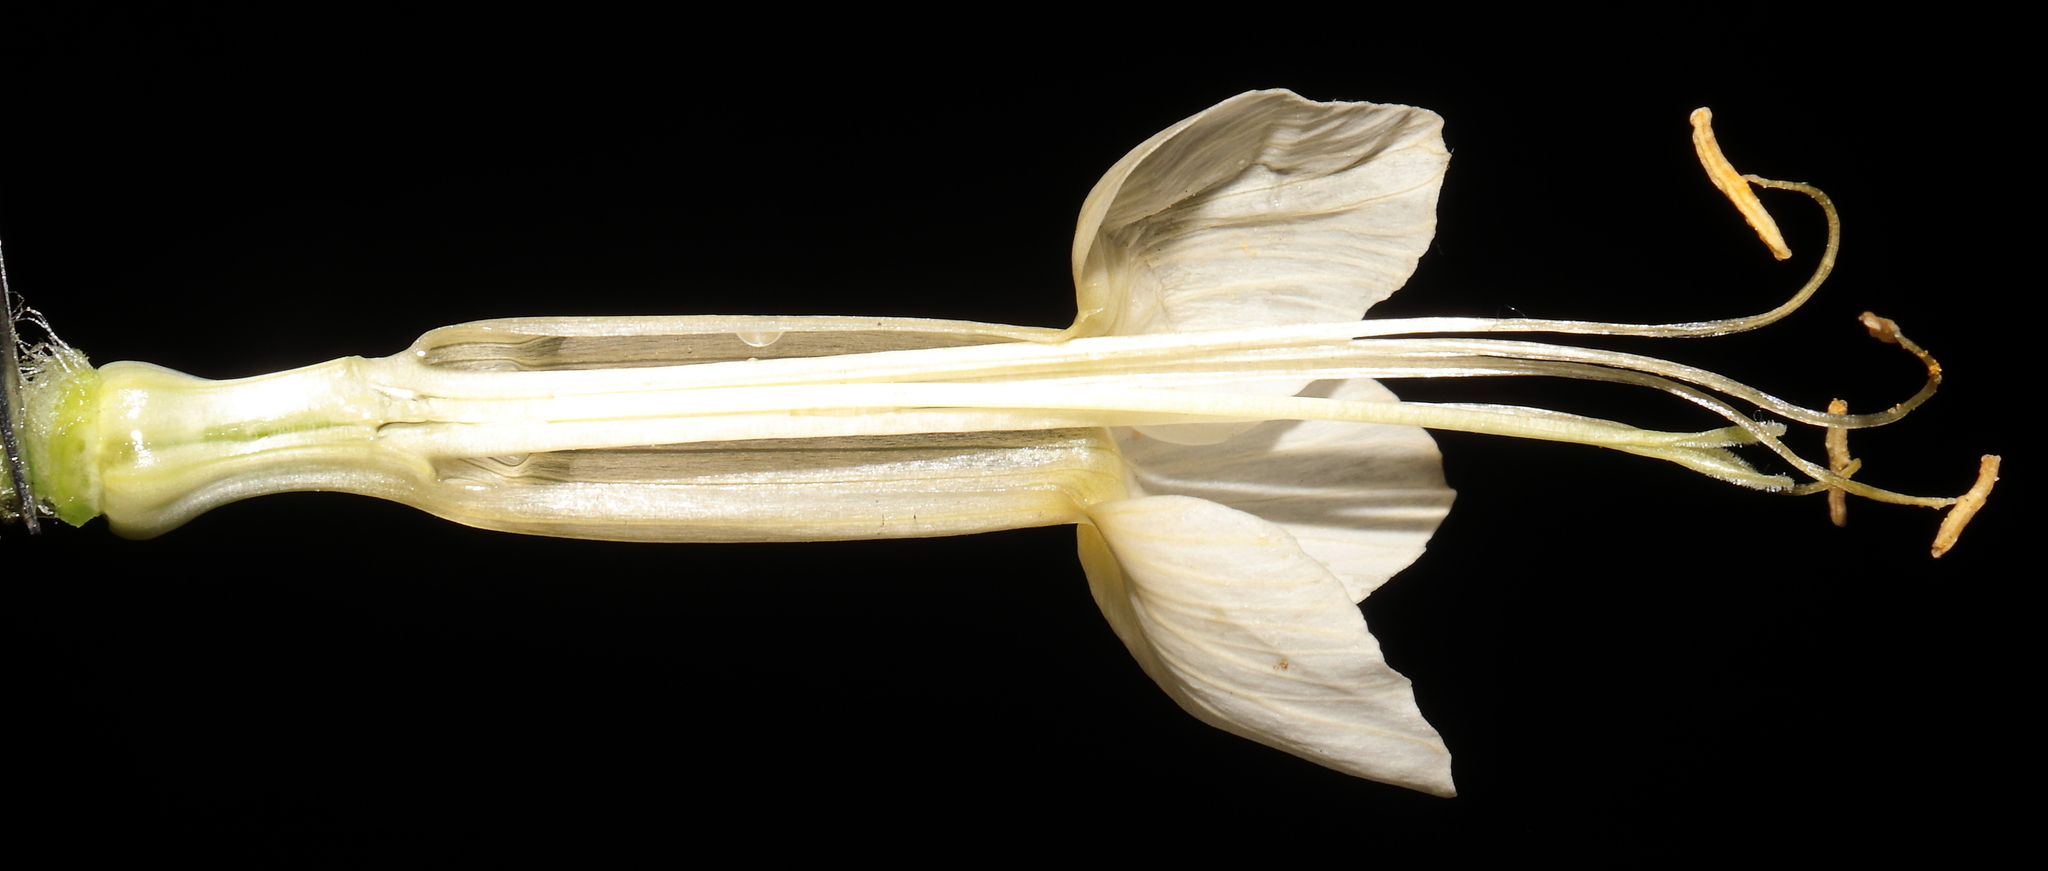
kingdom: Plantae
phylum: Tracheophyta
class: Magnoliopsida
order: Ericales
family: Polemoniaceae
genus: Cantua
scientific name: Cantua quercifolia
